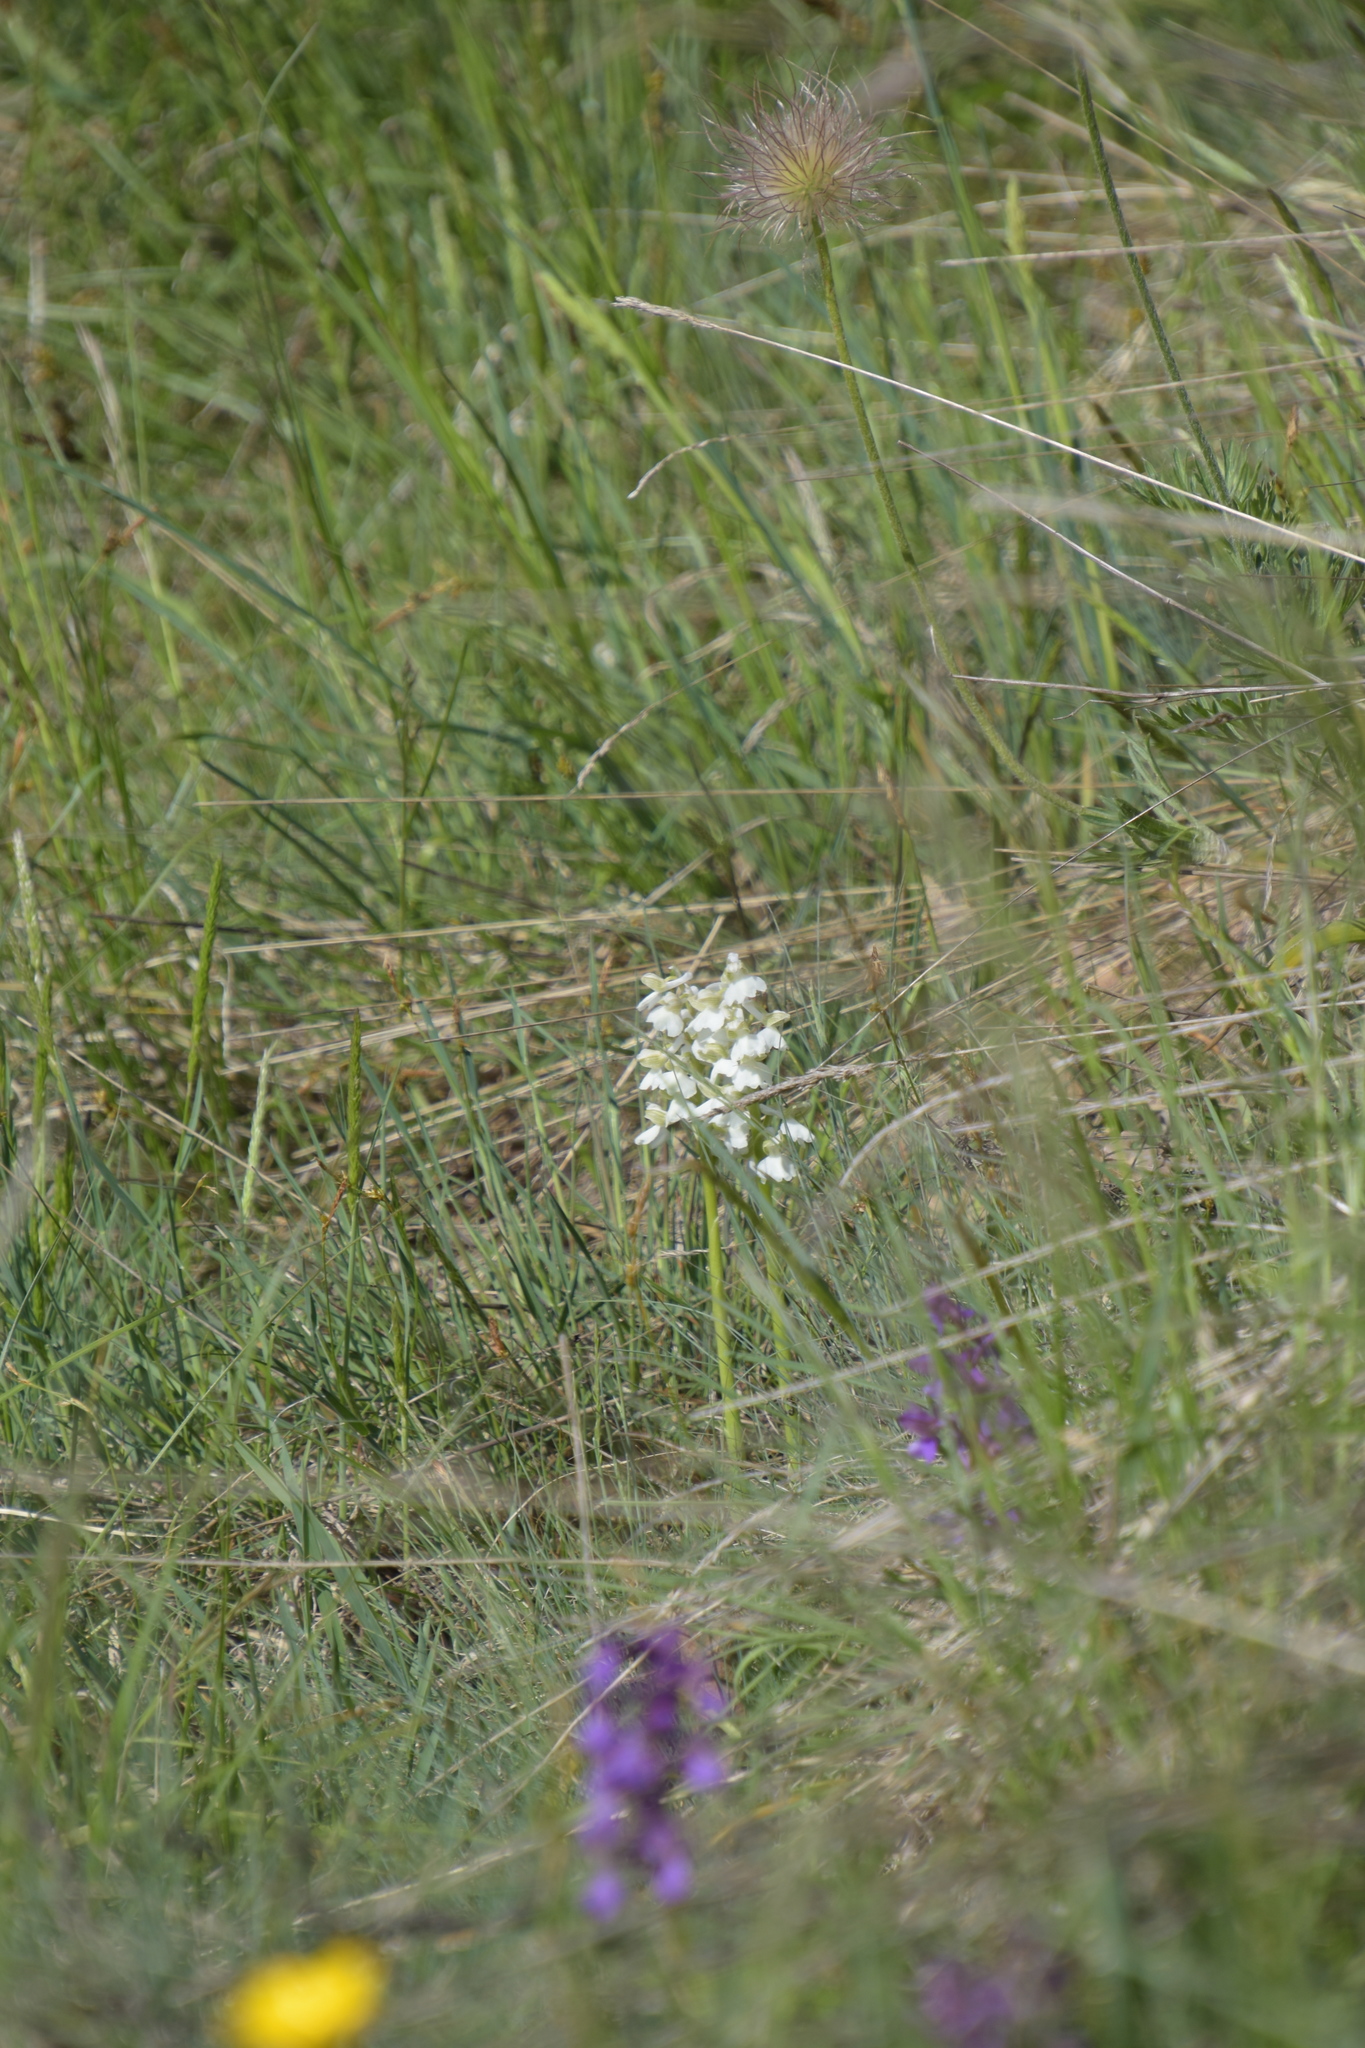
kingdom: Plantae
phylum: Tracheophyta
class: Liliopsida
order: Asparagales
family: Orchidaceae
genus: Anacamptis
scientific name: Anacamptis morio
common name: Green-winged orchid
